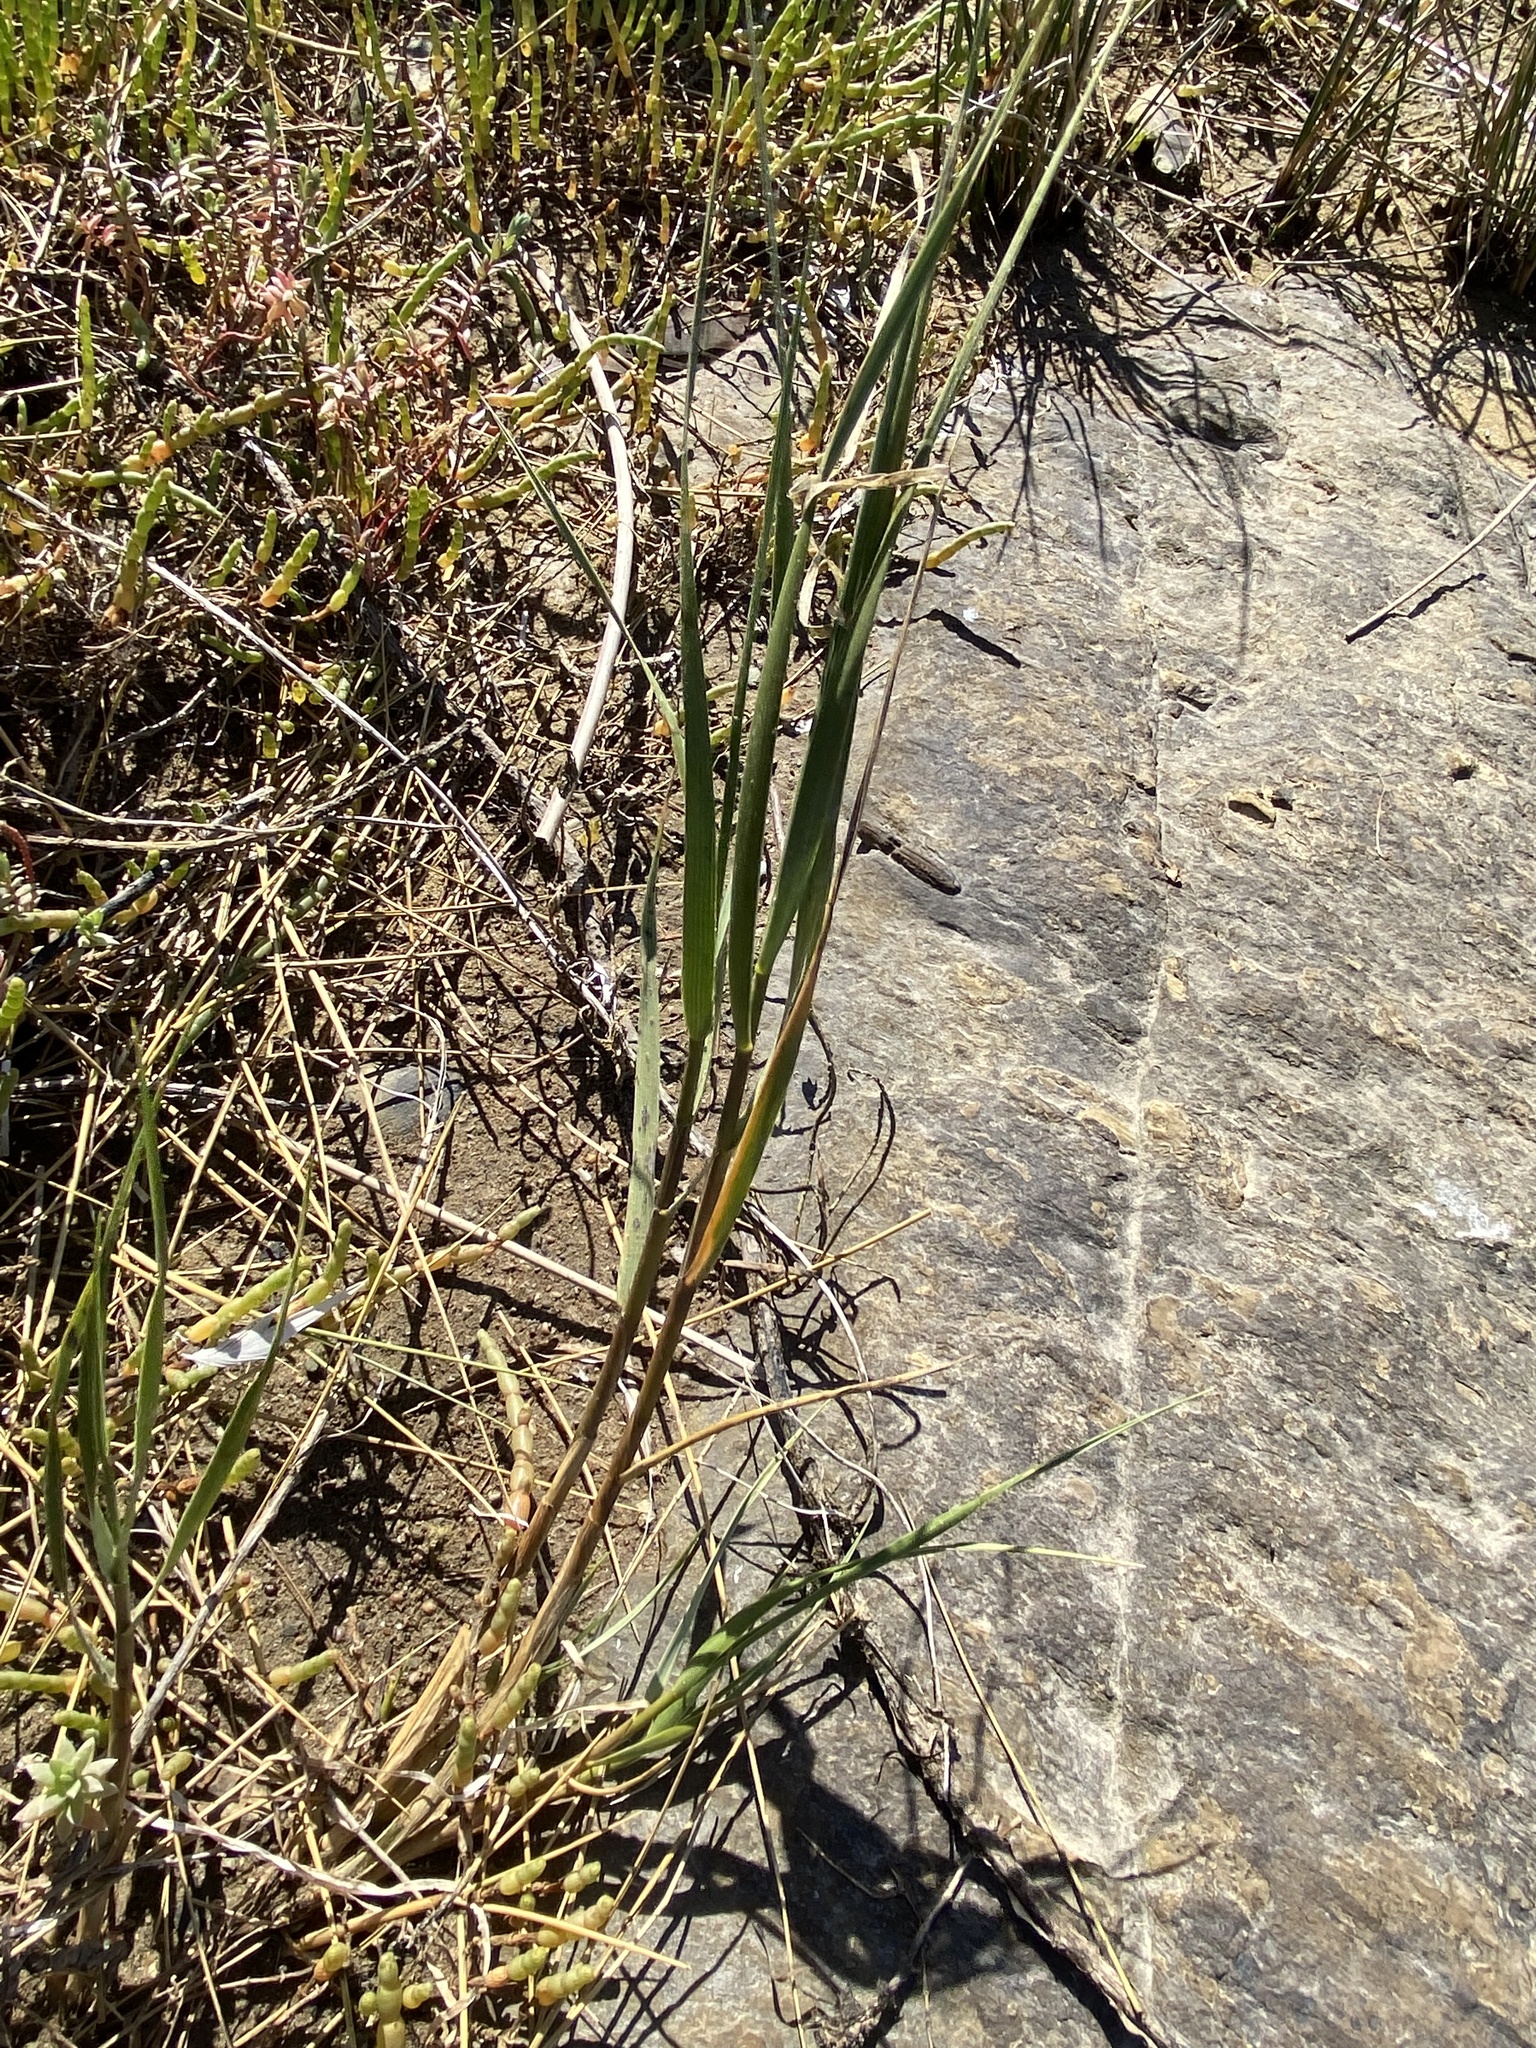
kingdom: Plantae
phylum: Tracheophyta
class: Liliopsida
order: Poales
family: Poaceae
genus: Sporobolus
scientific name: Sporobolus maritimus
